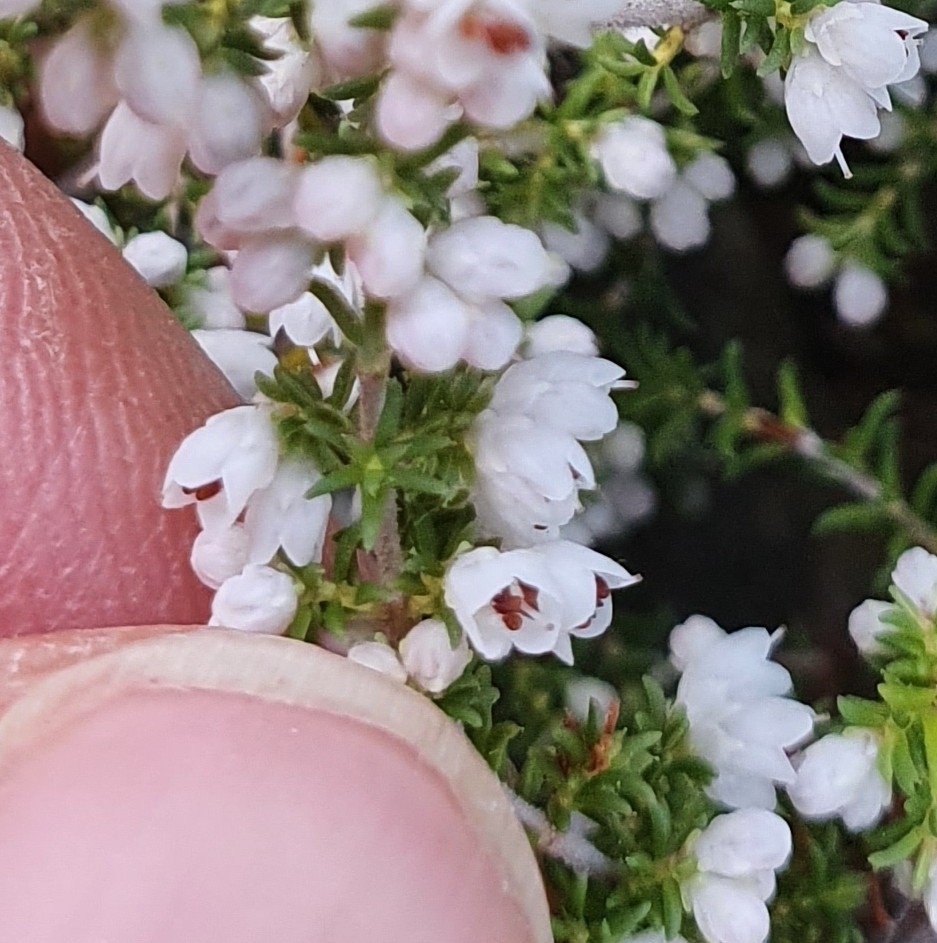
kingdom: Plantae
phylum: Tracheophyta
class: Magnoliopsida
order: Ericales
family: Ericaceae
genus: Erica
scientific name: Erica eremioides
